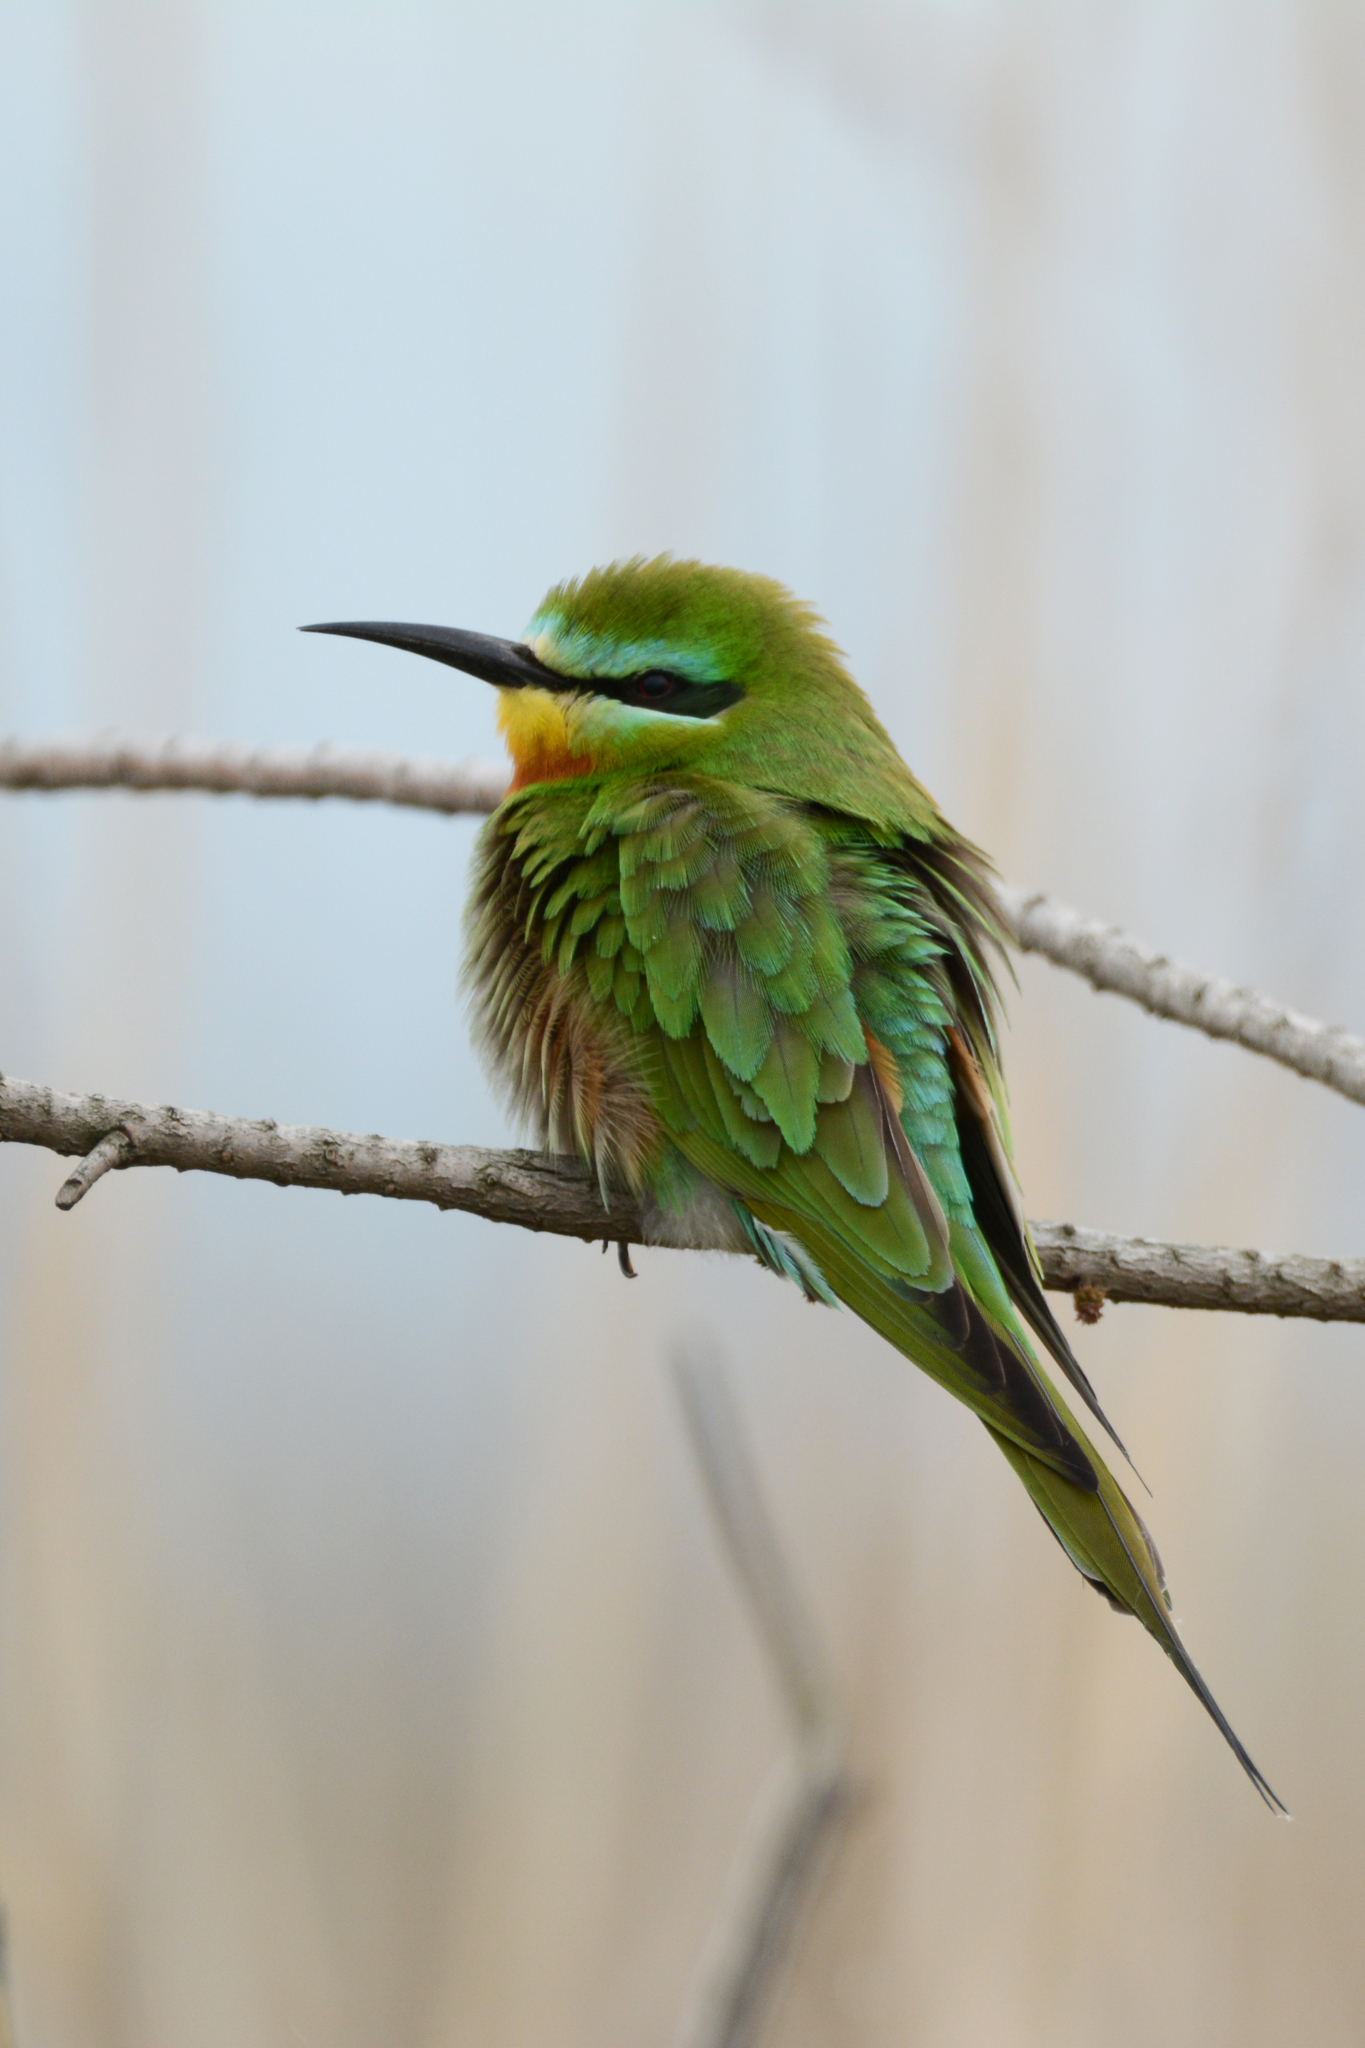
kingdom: Animalia
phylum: Chordata
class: Aves
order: Coraciiformes
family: Meropidae
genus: Merops
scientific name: Merops persicus
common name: Blue-cheeked bee-eater
